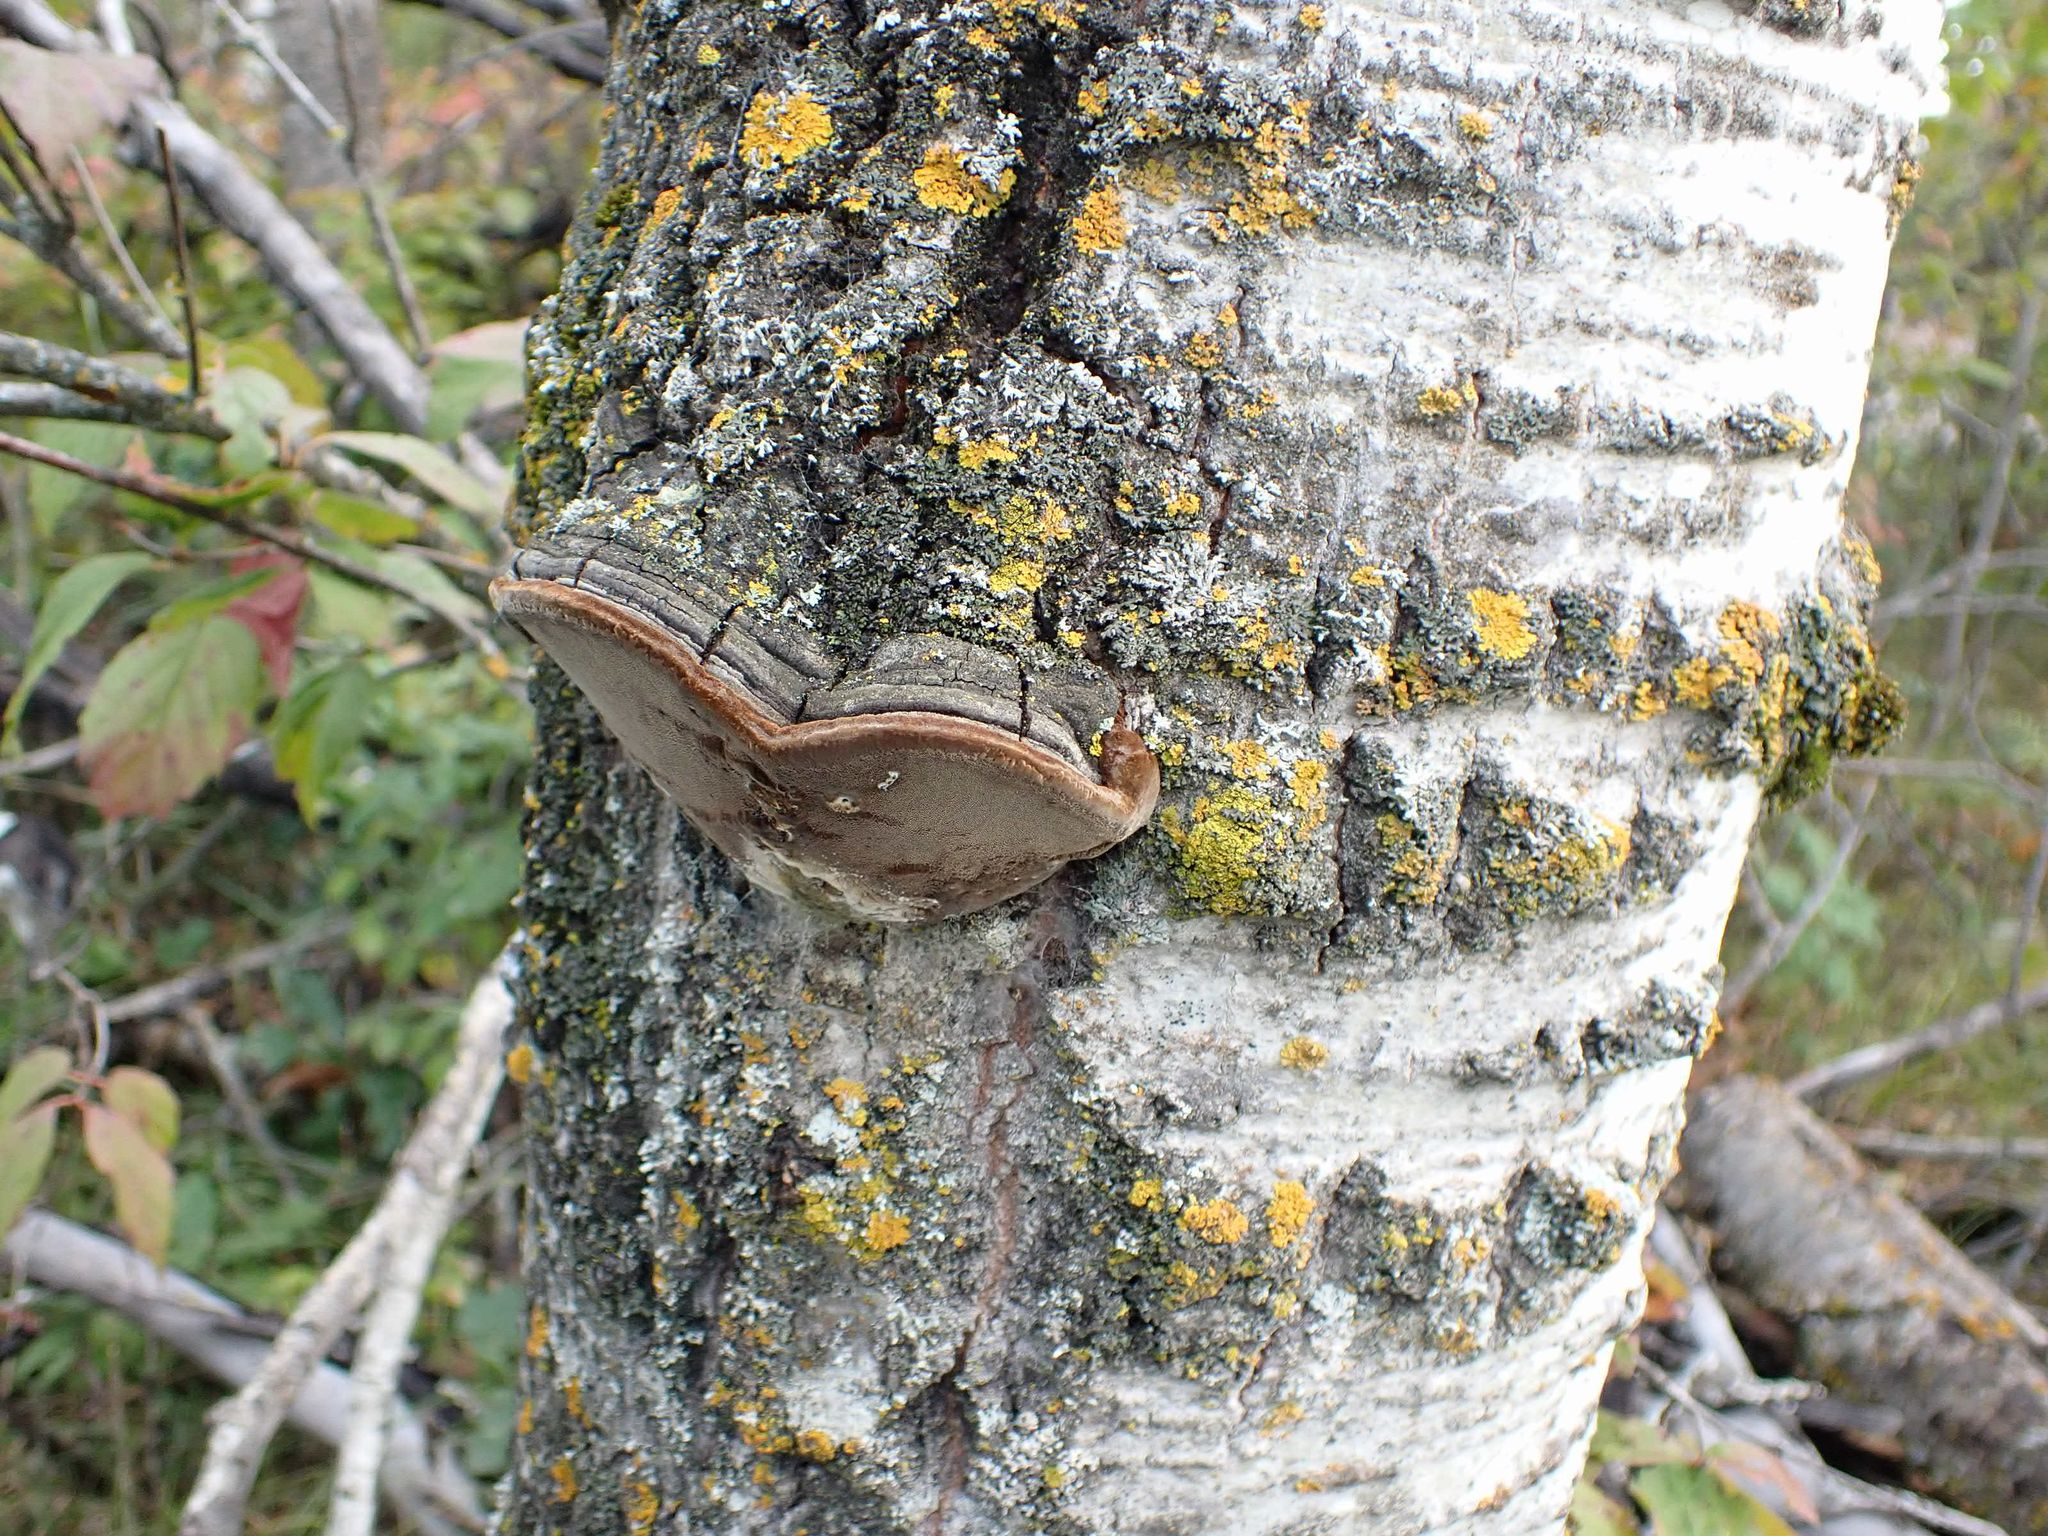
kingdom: Fungi
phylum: Basidiomycota
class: Agaricomycetes
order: Hymenochaetales
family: Hymenochaetaceae
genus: Phellinus
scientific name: Phellinus tremulae
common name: Aspen bracket
